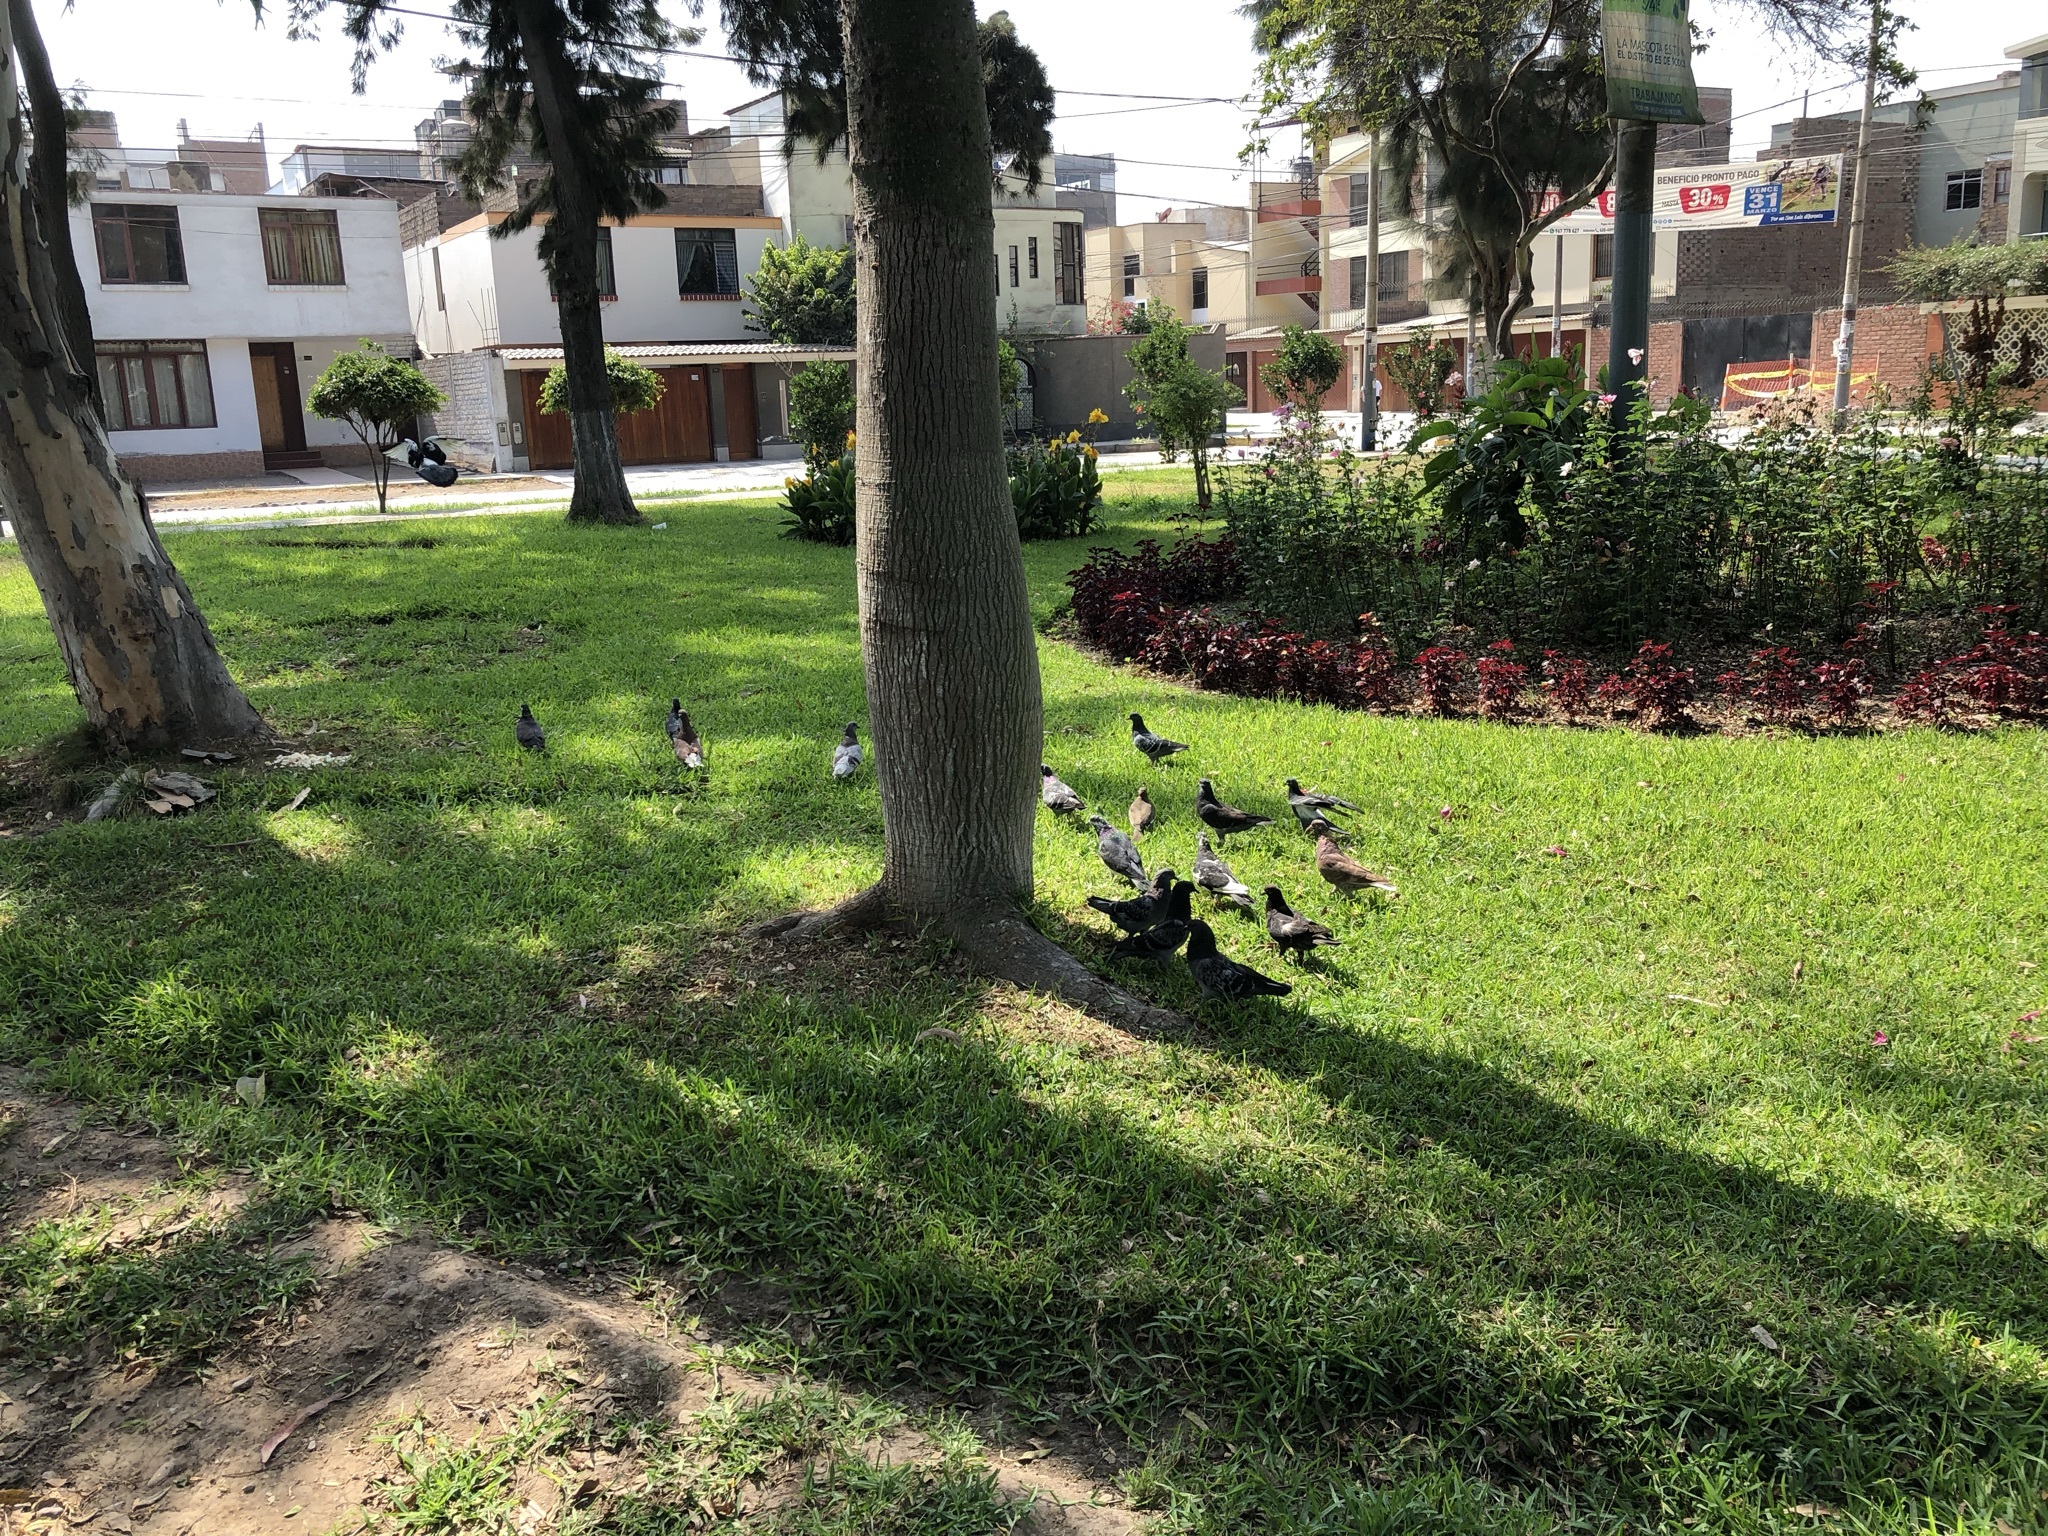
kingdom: Animalia
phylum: Chordata
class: Aves
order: Columbiformes
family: Columbidae
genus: Columba
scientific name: Columba livia
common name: Rock pigeon
